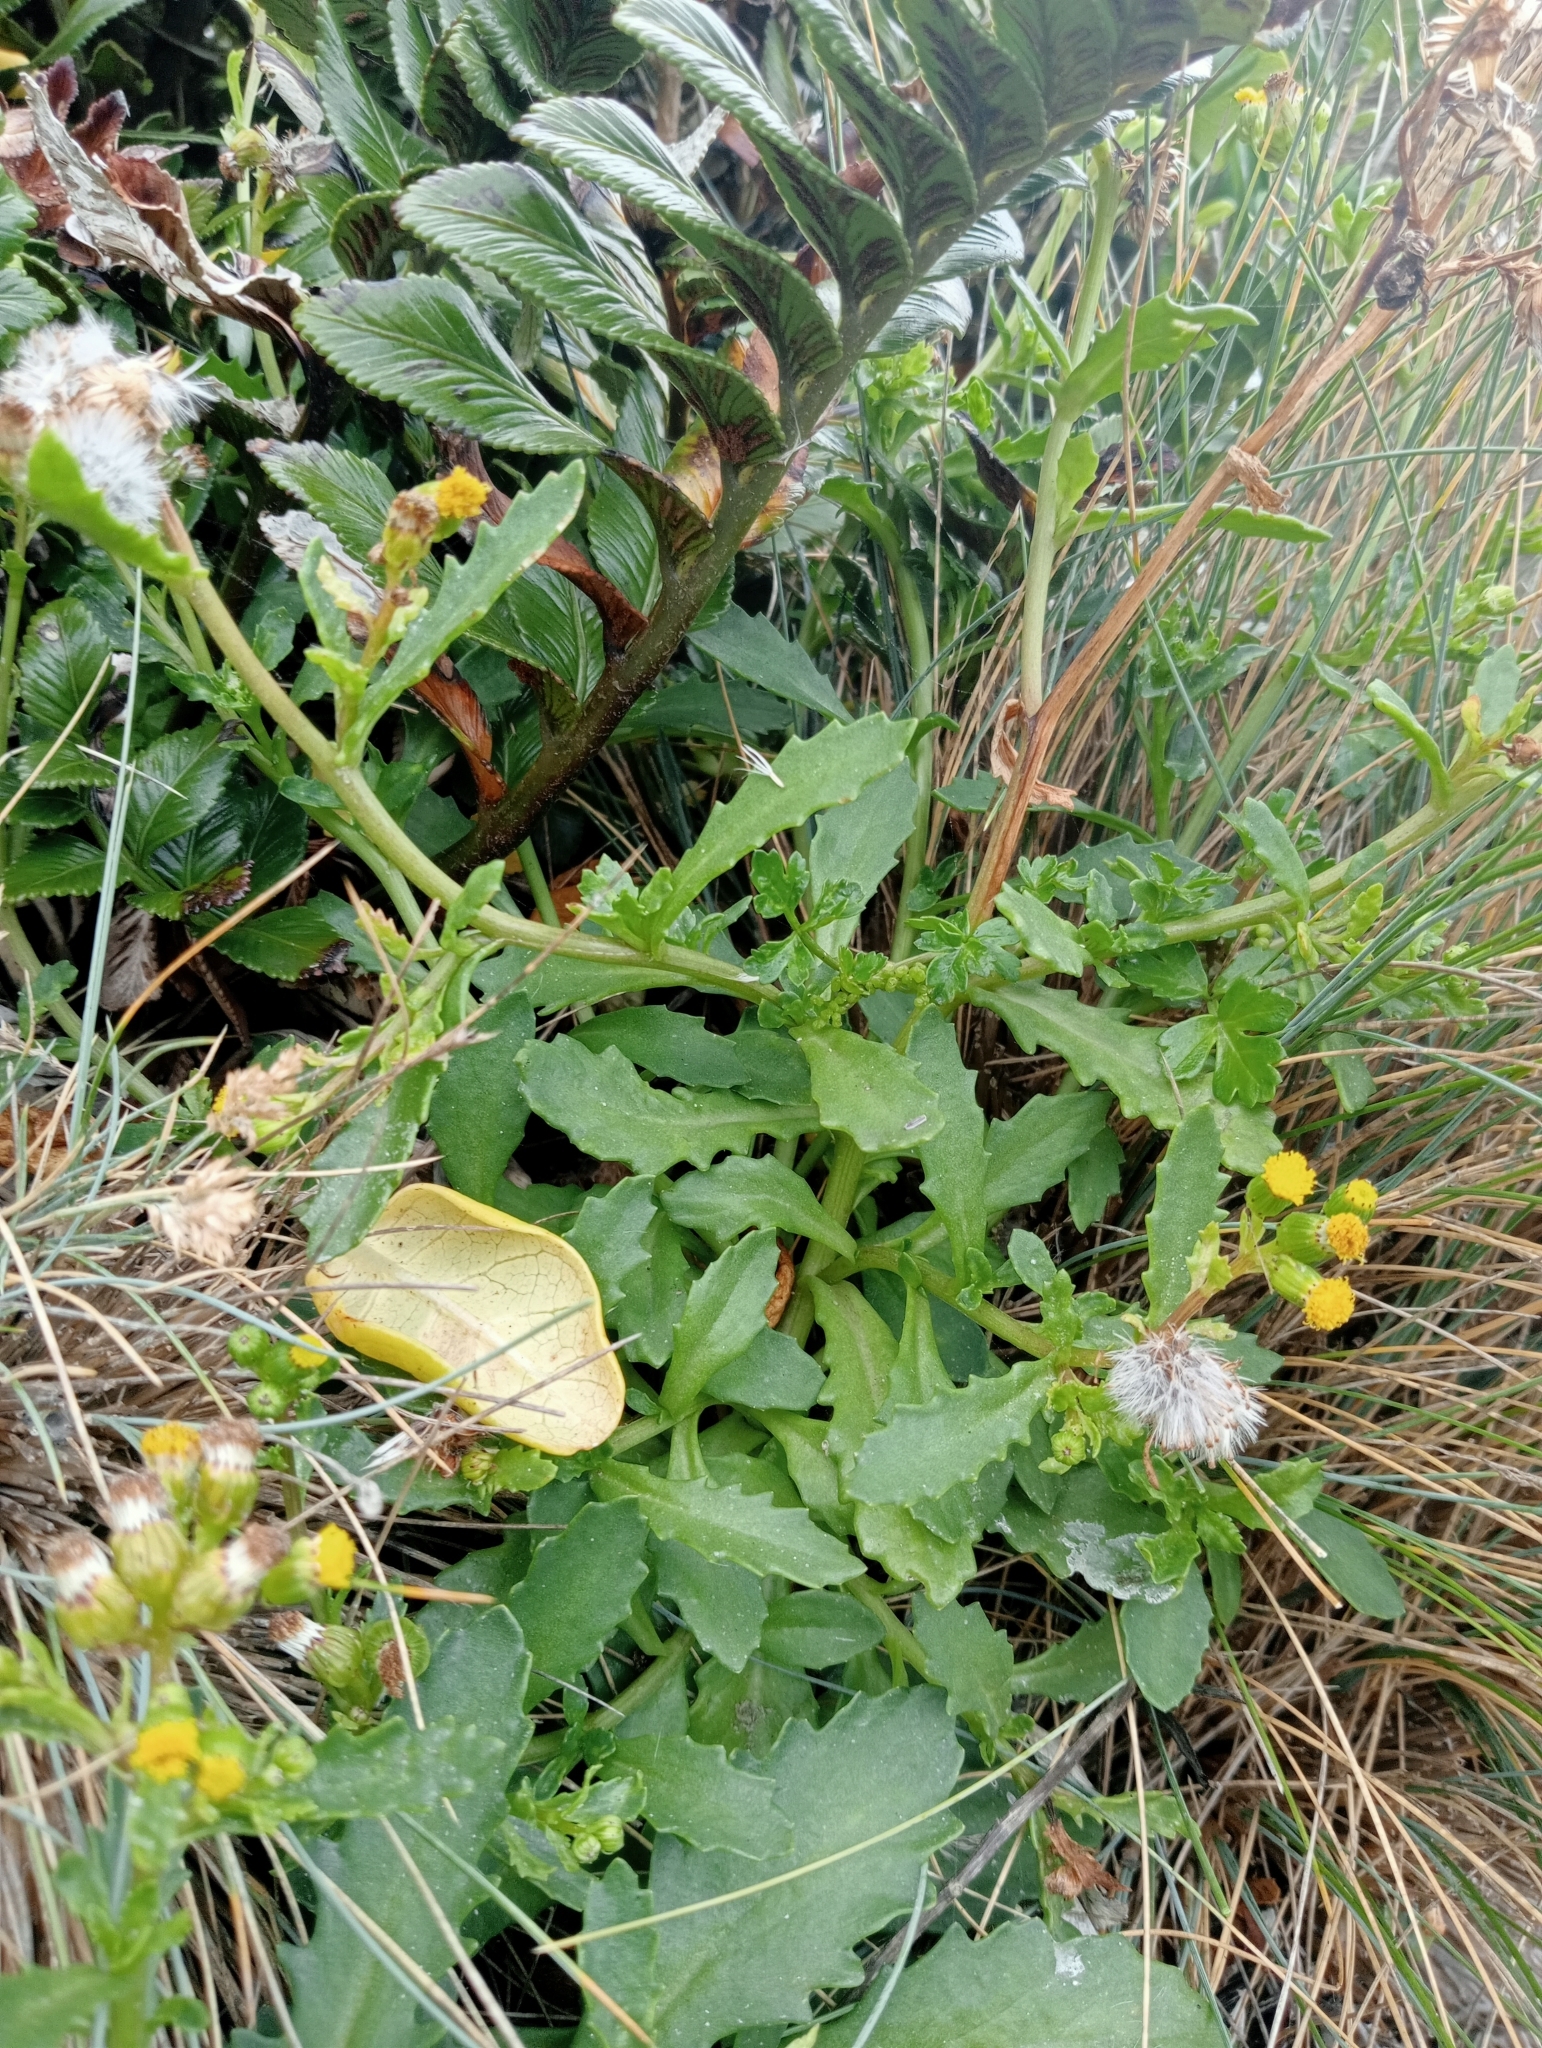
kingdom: Plantae
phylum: Tracheophyta
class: Magnoliopsida
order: Asterales
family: Asteraceae
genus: Senecio
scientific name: Senecio matatini
